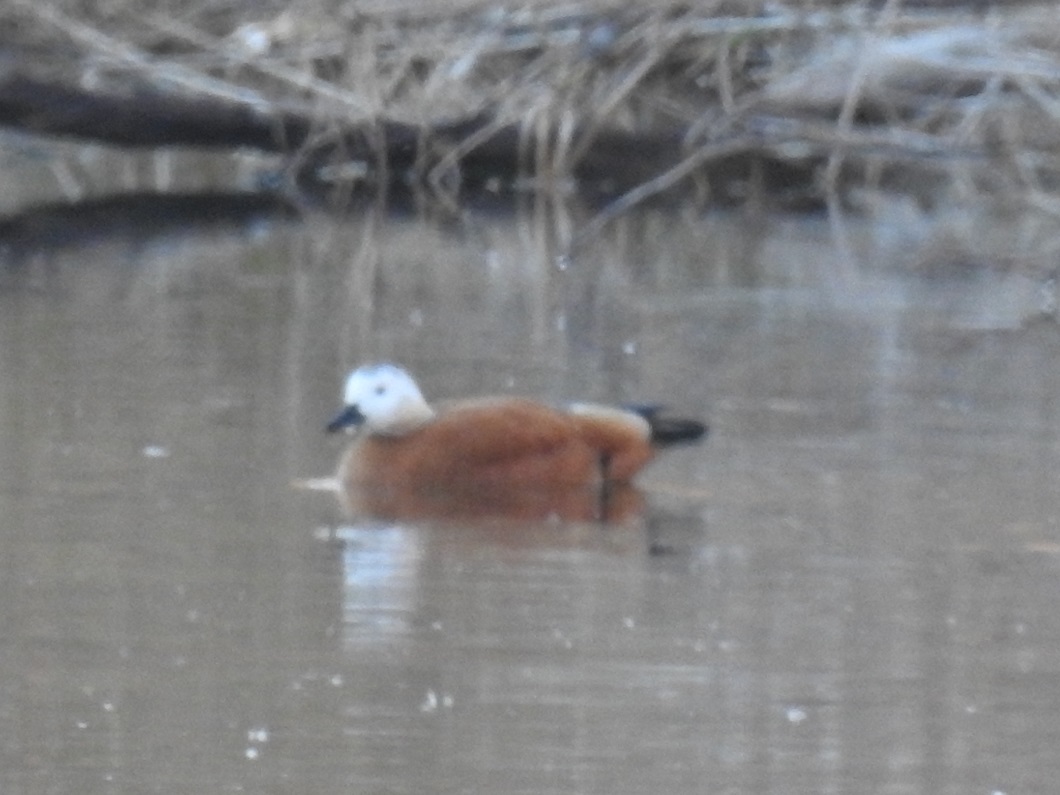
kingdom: Animalia
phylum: Chordata
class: Aves
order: Anseriformes
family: Anatidae
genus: Tadorna
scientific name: Tadorna ferruginea
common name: Ruddy shelduck
